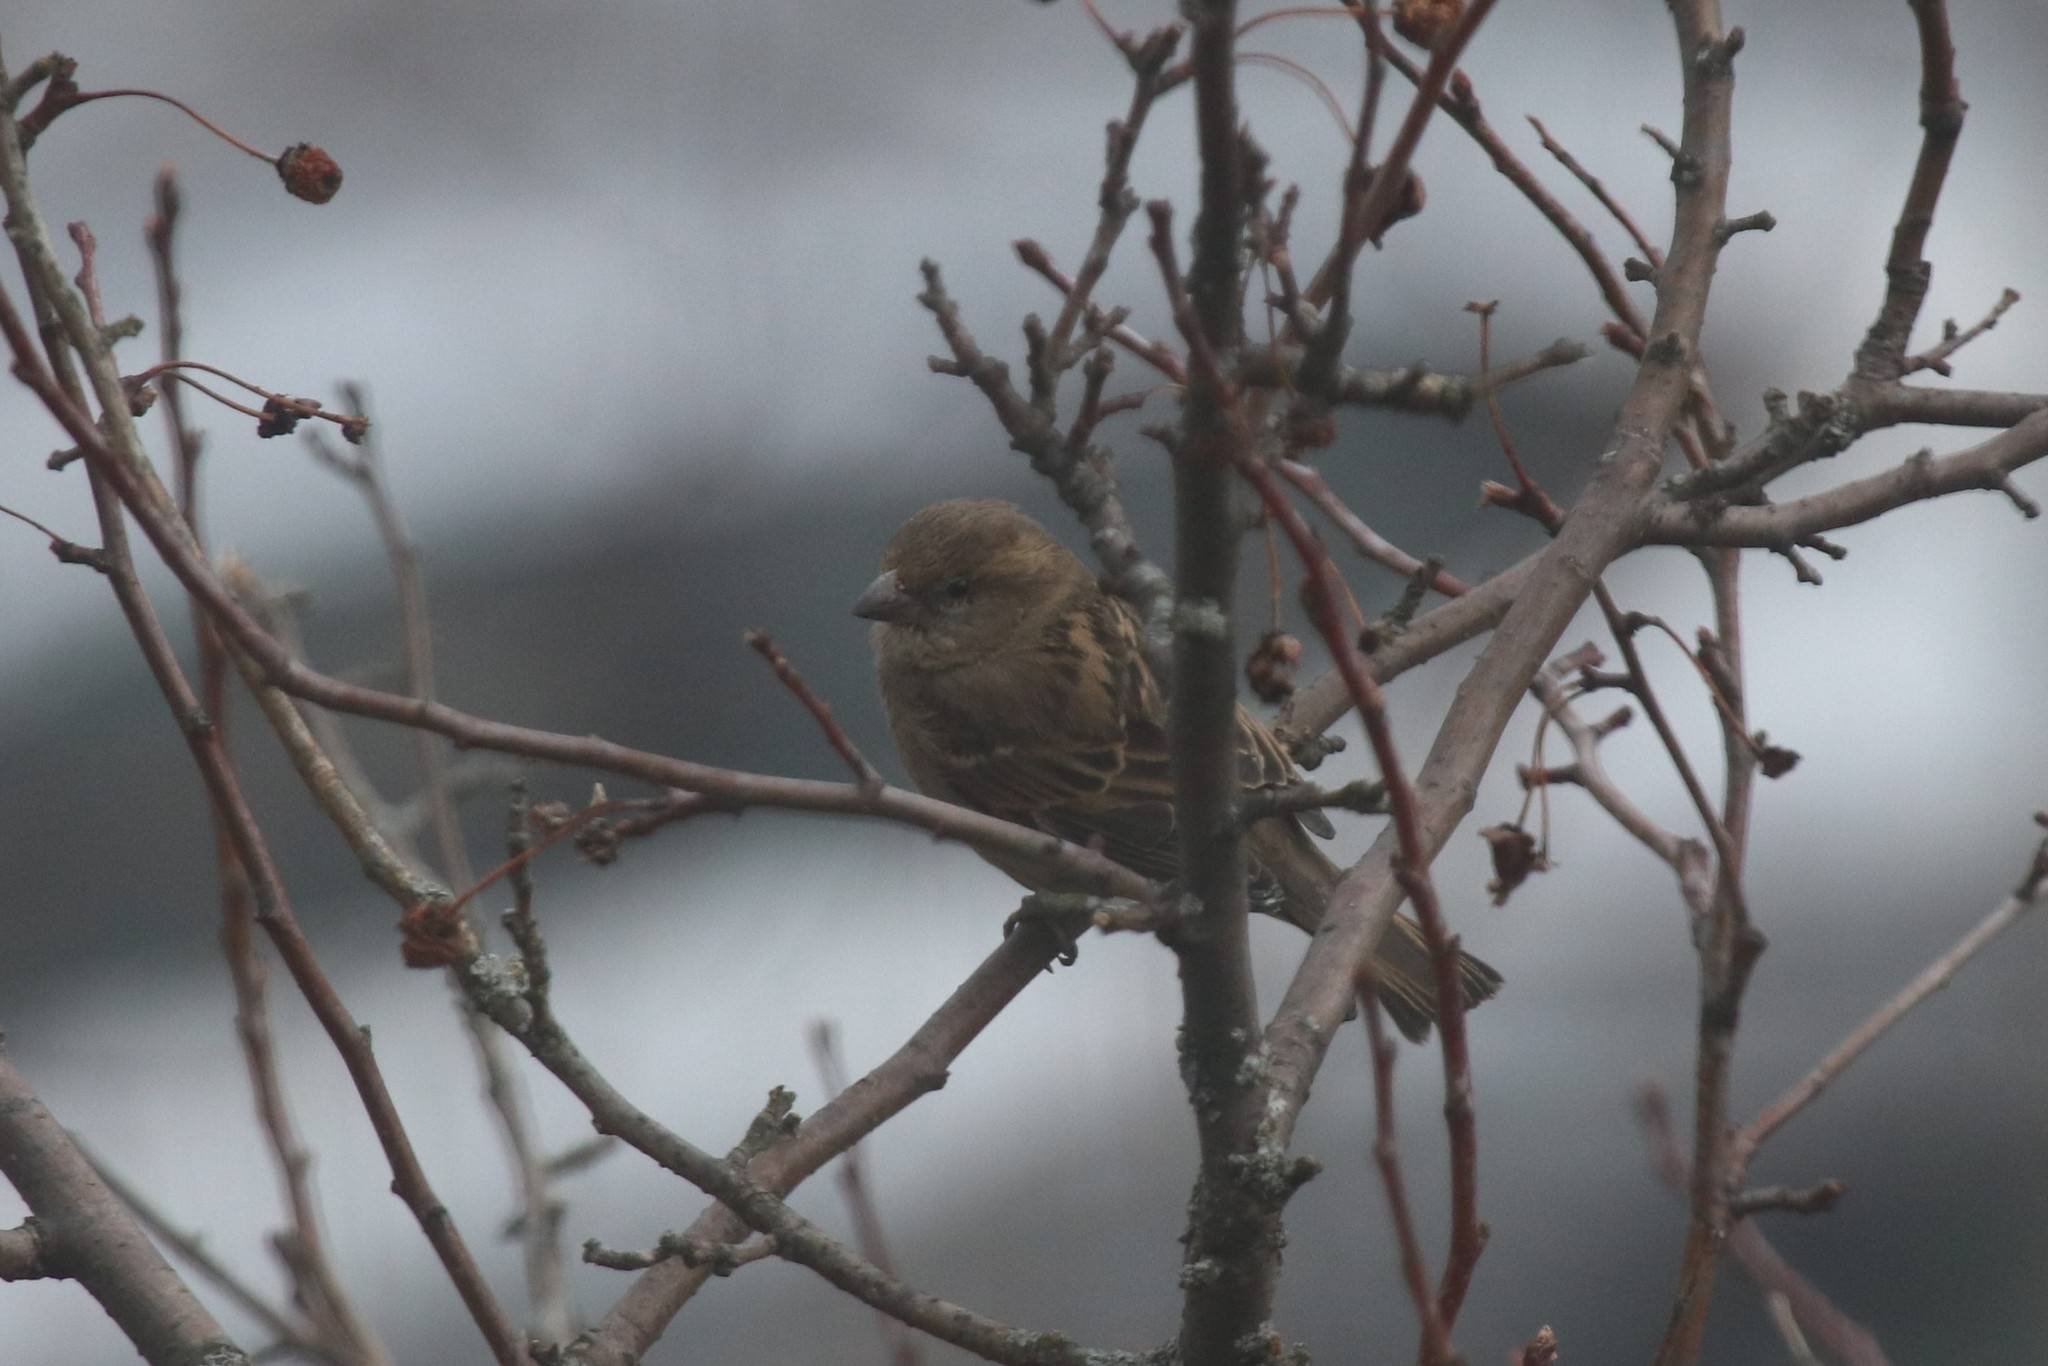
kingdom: Animalia
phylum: Chordata
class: Aves
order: Passeriformes
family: Passeridae
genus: Passer
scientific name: Passer domesticus
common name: House sparrow
